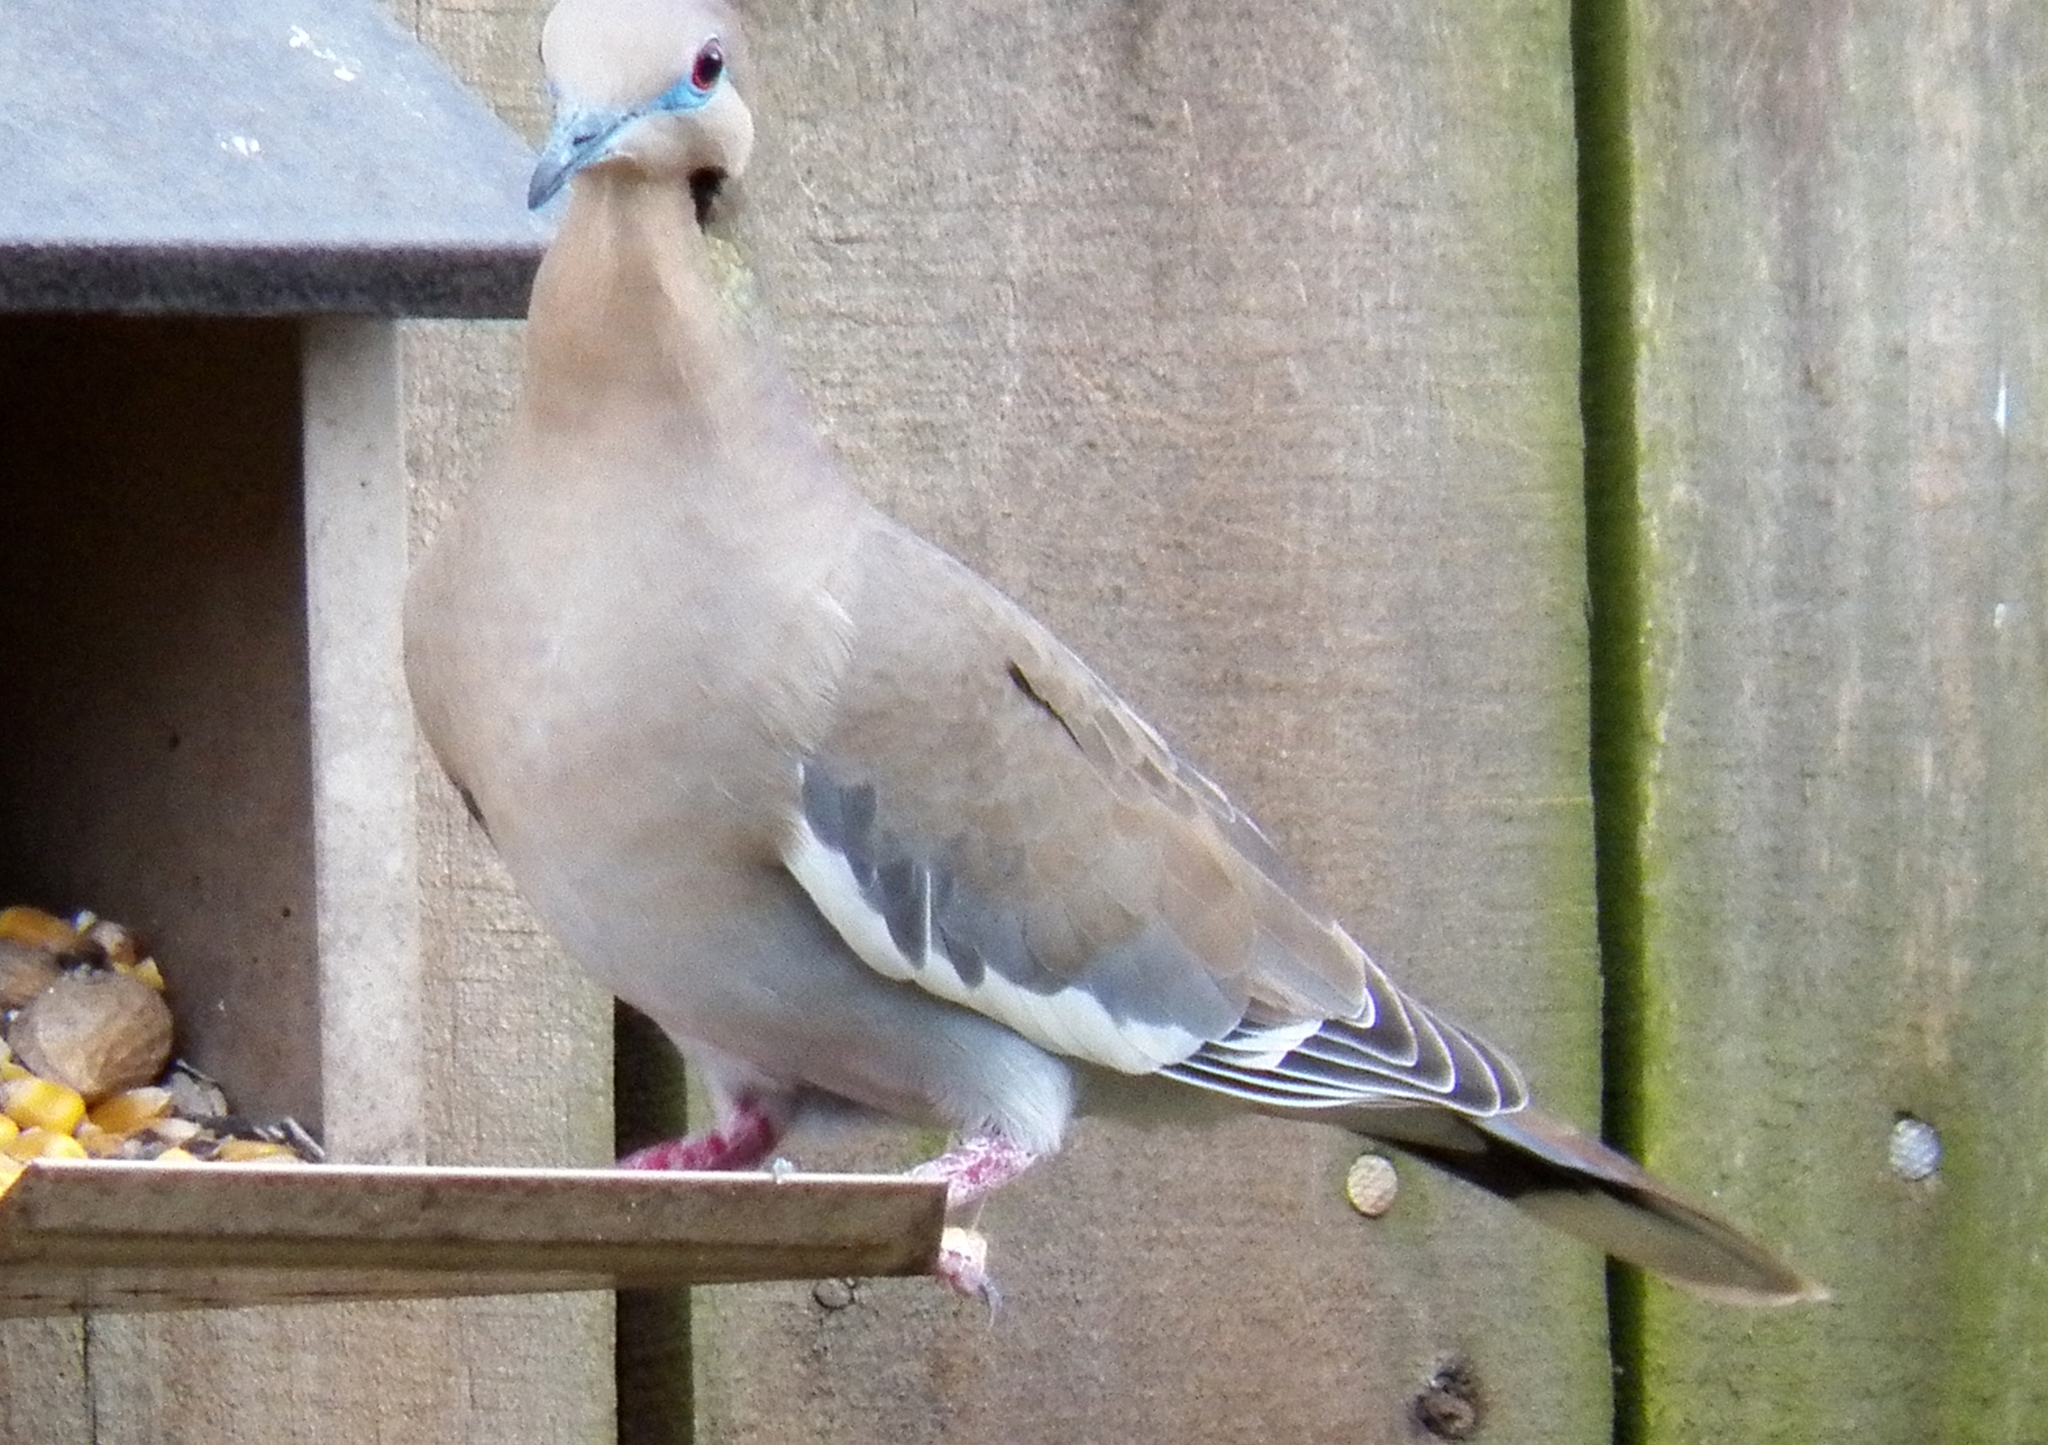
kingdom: Animalia
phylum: Chordata
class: Aves
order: Columbiformes
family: Columbidae
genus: Zenaida
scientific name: Zenaida asiatica
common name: White-winged dove
